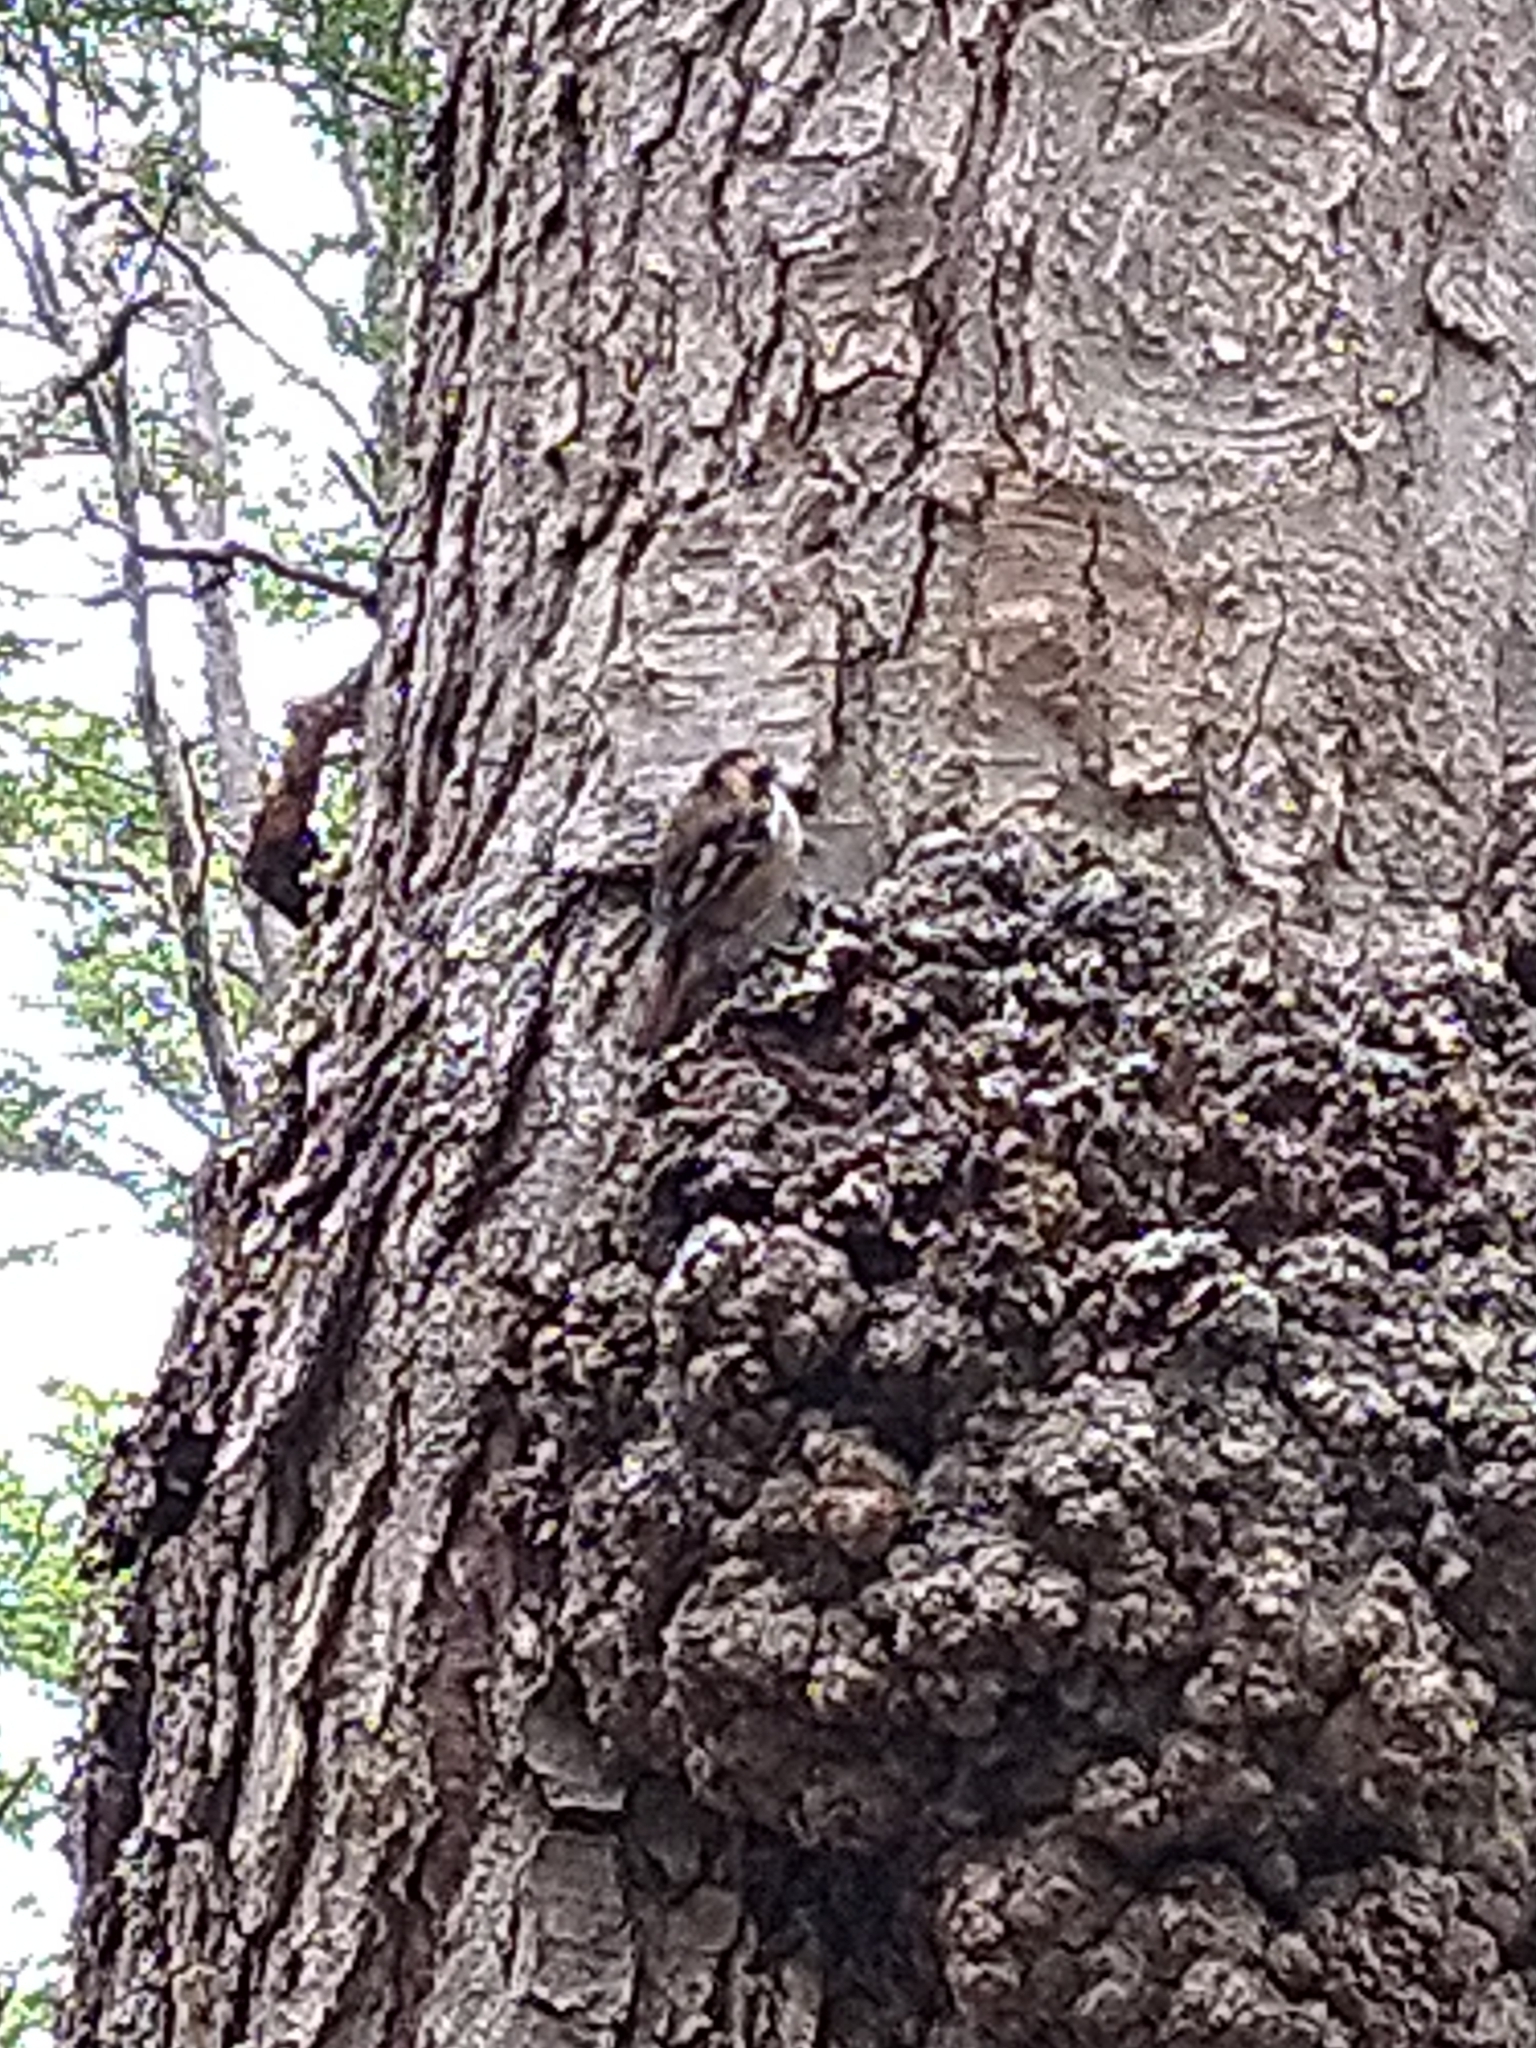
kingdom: Animalia
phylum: Chordata
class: Aves
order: Passeriformes
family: Furnariidae
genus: Aphrastura
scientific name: Aphrastura spinicauda
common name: Thorn-tailed rayadito
